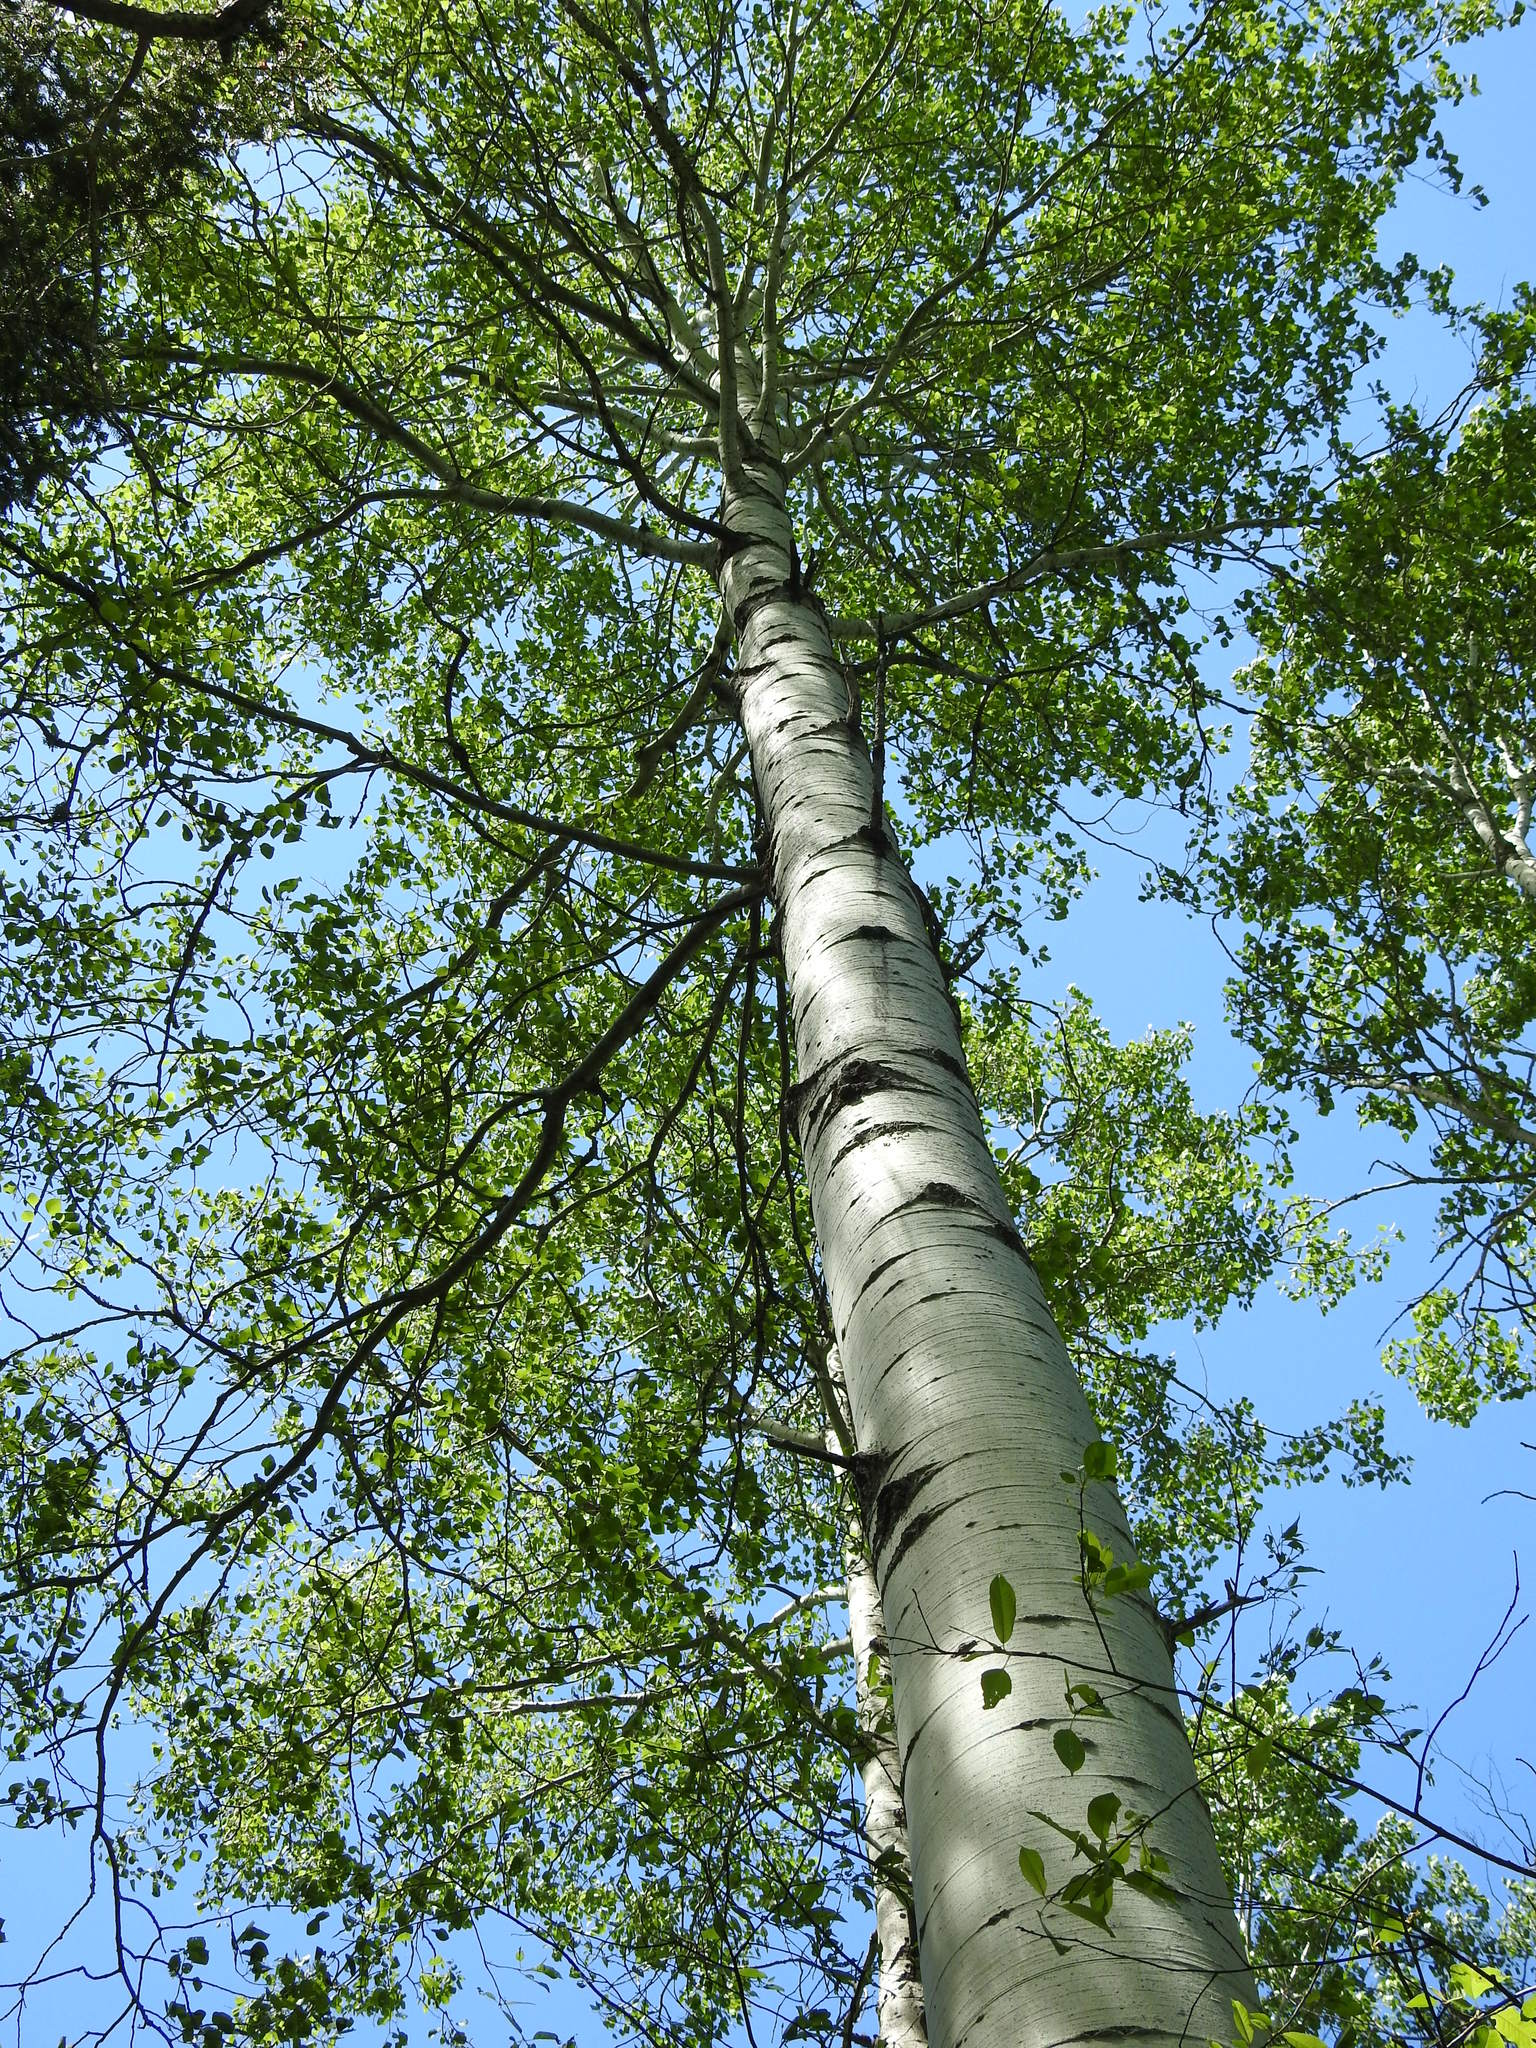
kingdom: Plantae
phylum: Tracheophyta
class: Magnoliopsida
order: Malpighiales
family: Salicaceae
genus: Populus
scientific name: Populus tremuloides
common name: Quaking aspen
